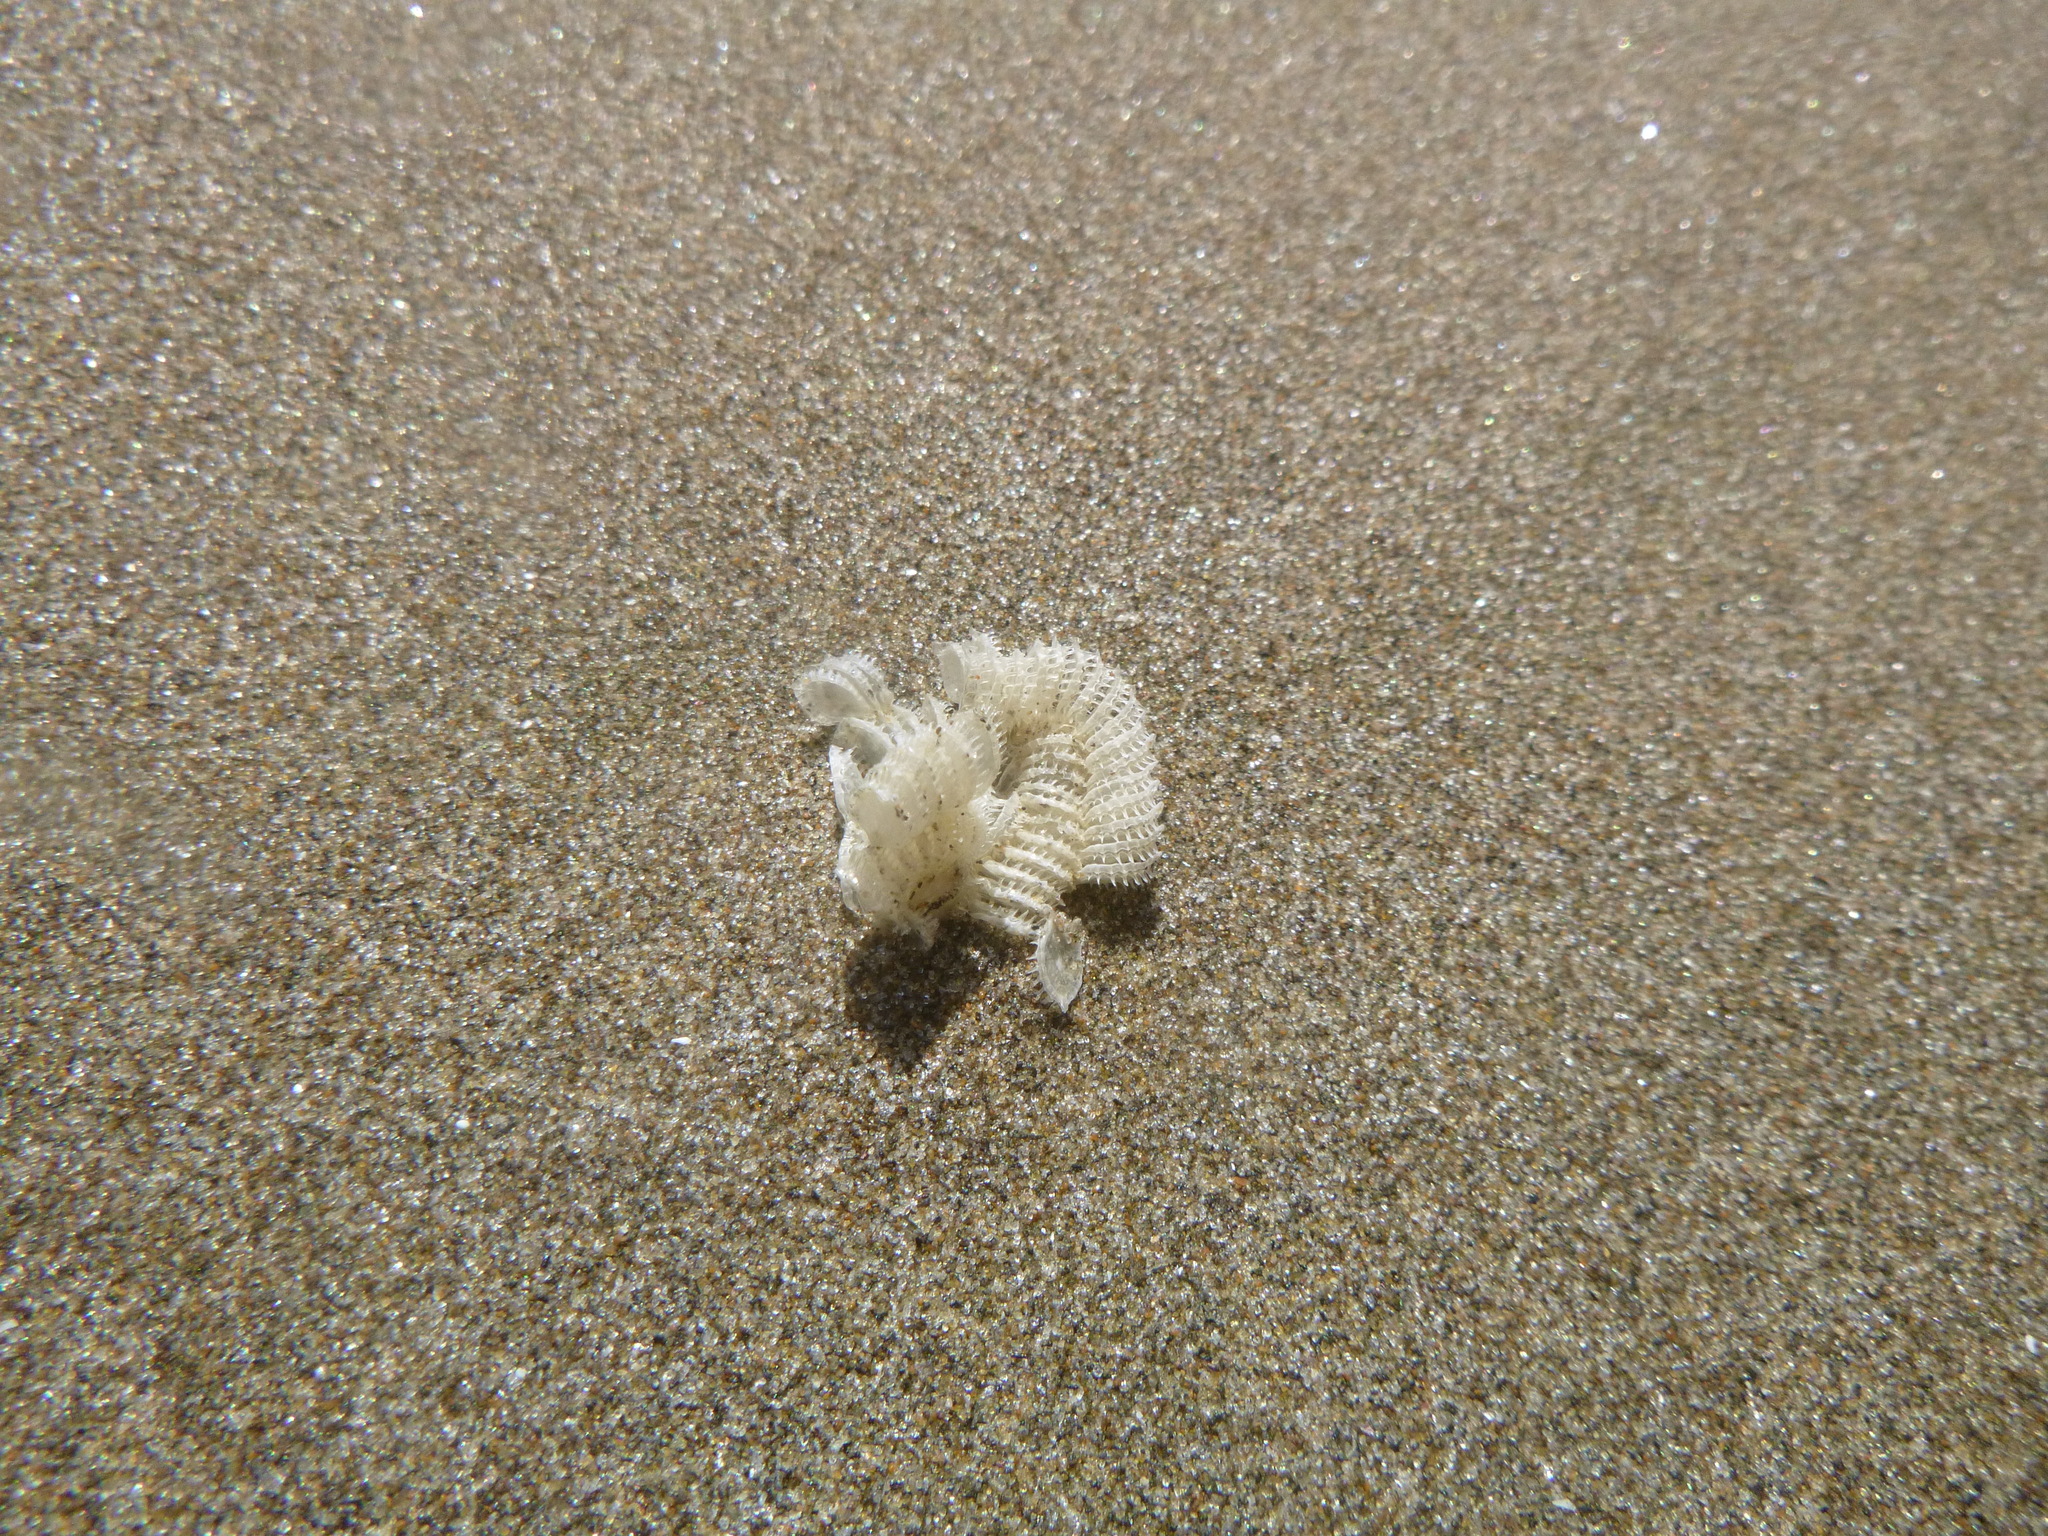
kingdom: Animalia
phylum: Mollusca
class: Gastropoda
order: Neogastropoda
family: Muricidae
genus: Poirieria
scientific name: Poirieria zelandica
